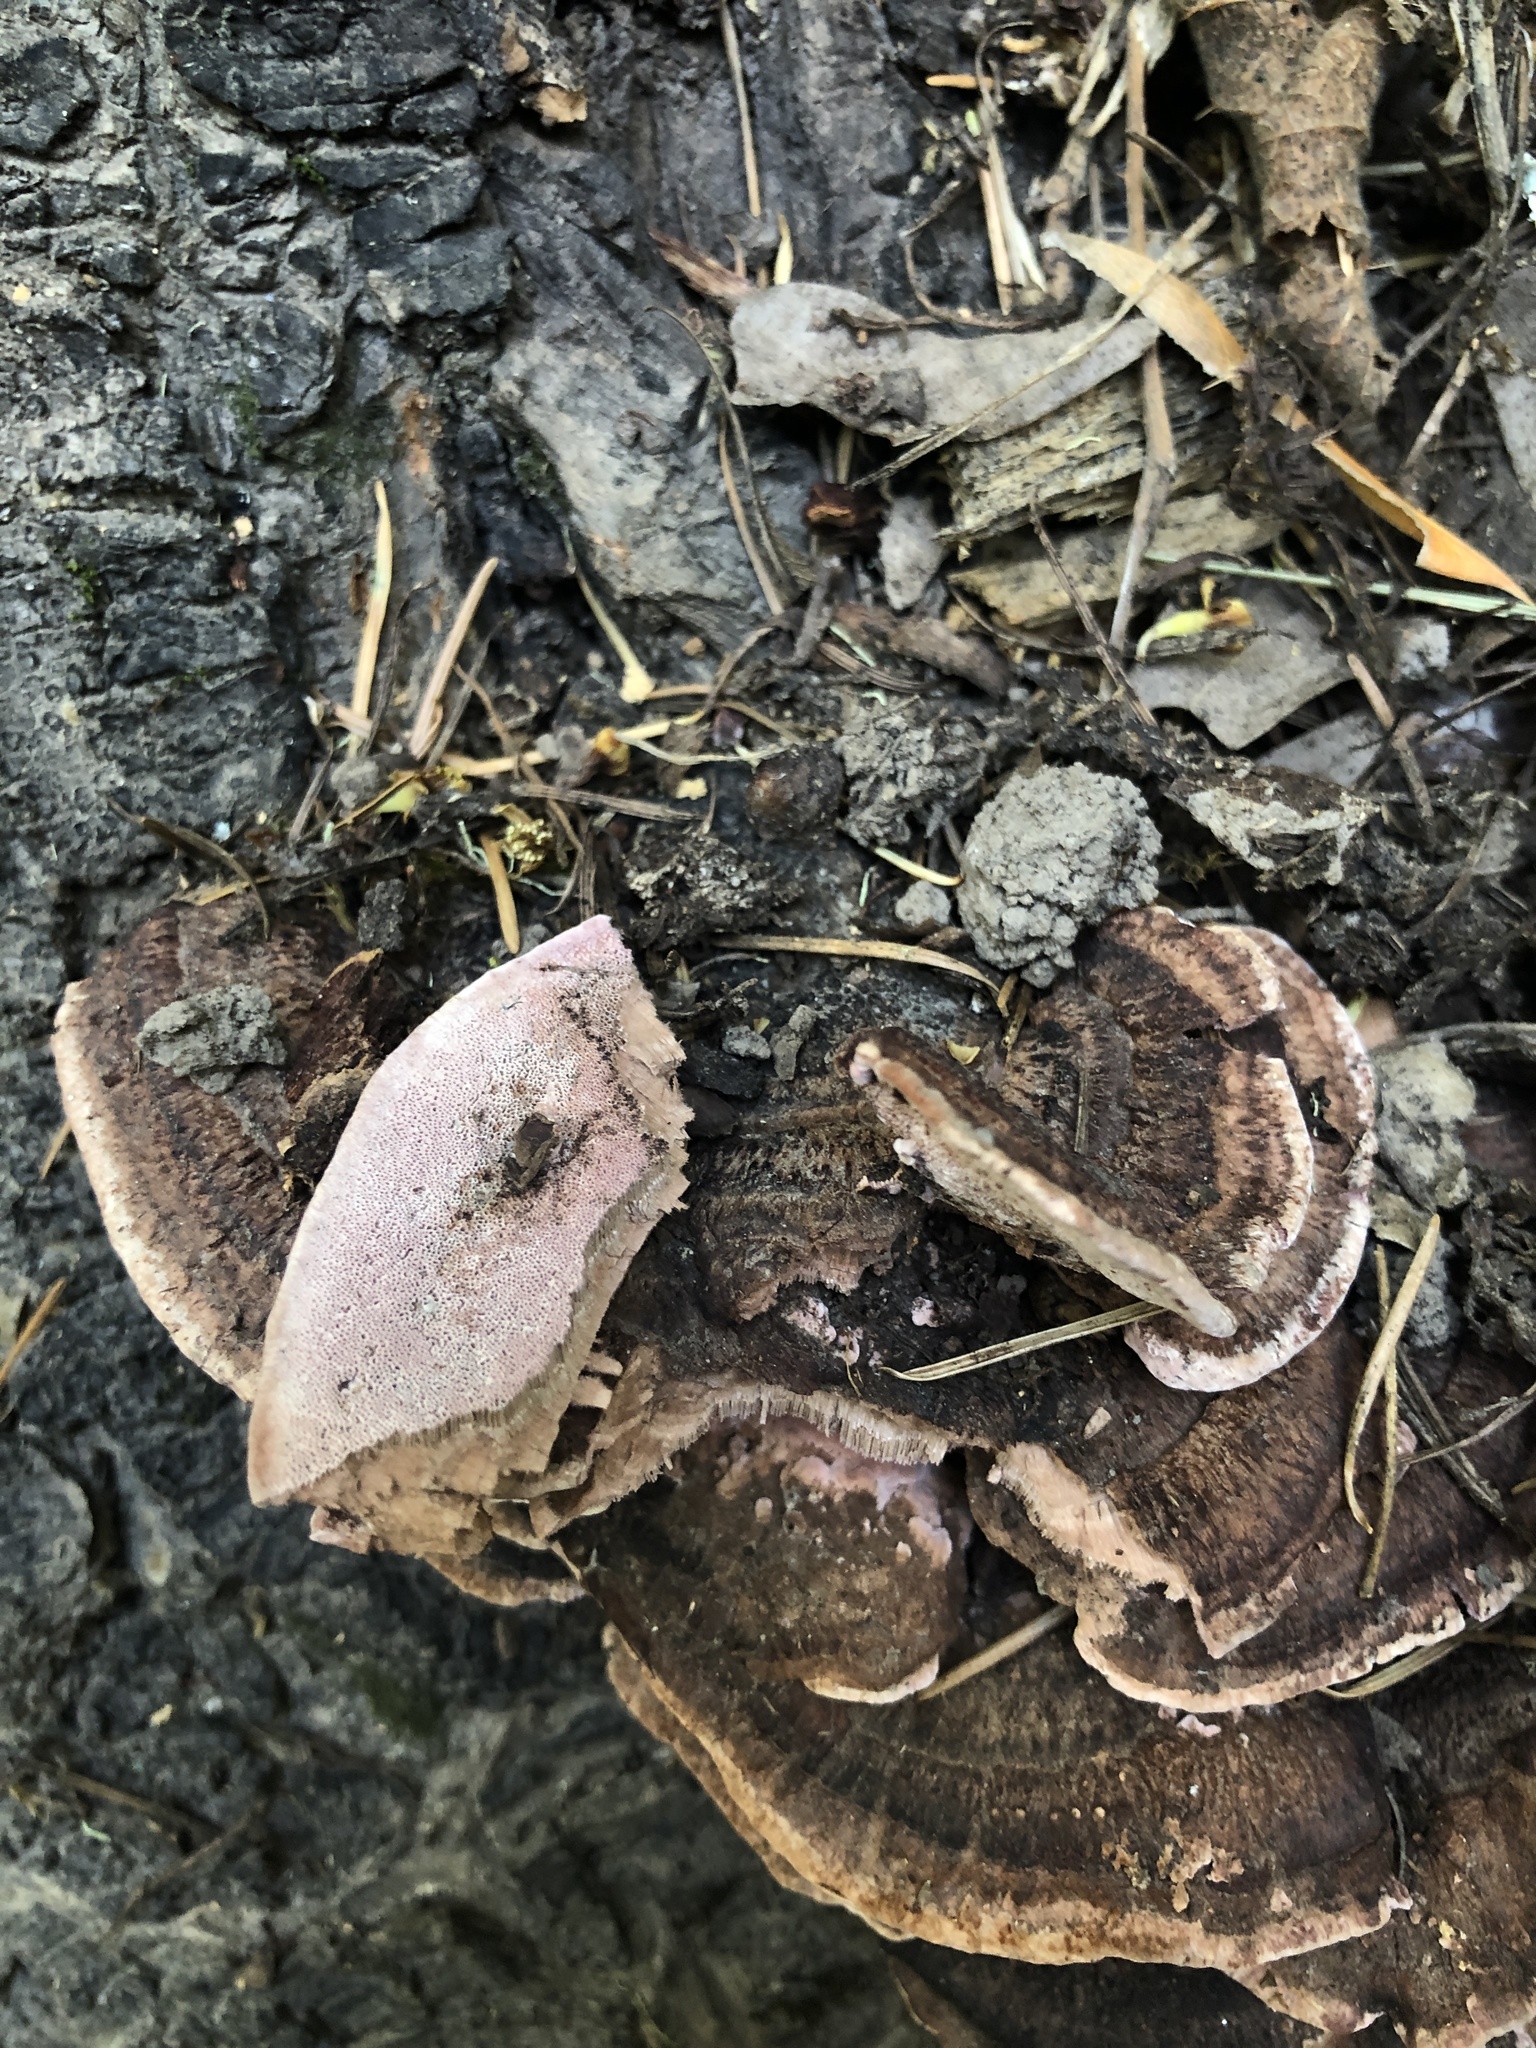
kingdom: Fungi
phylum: Basidiomycota
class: Agaricomycetes
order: Polyporales
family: Fomitopsidaceae
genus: Rhodofomes
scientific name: Rhodofomes cajanderi
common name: Rosy conk
